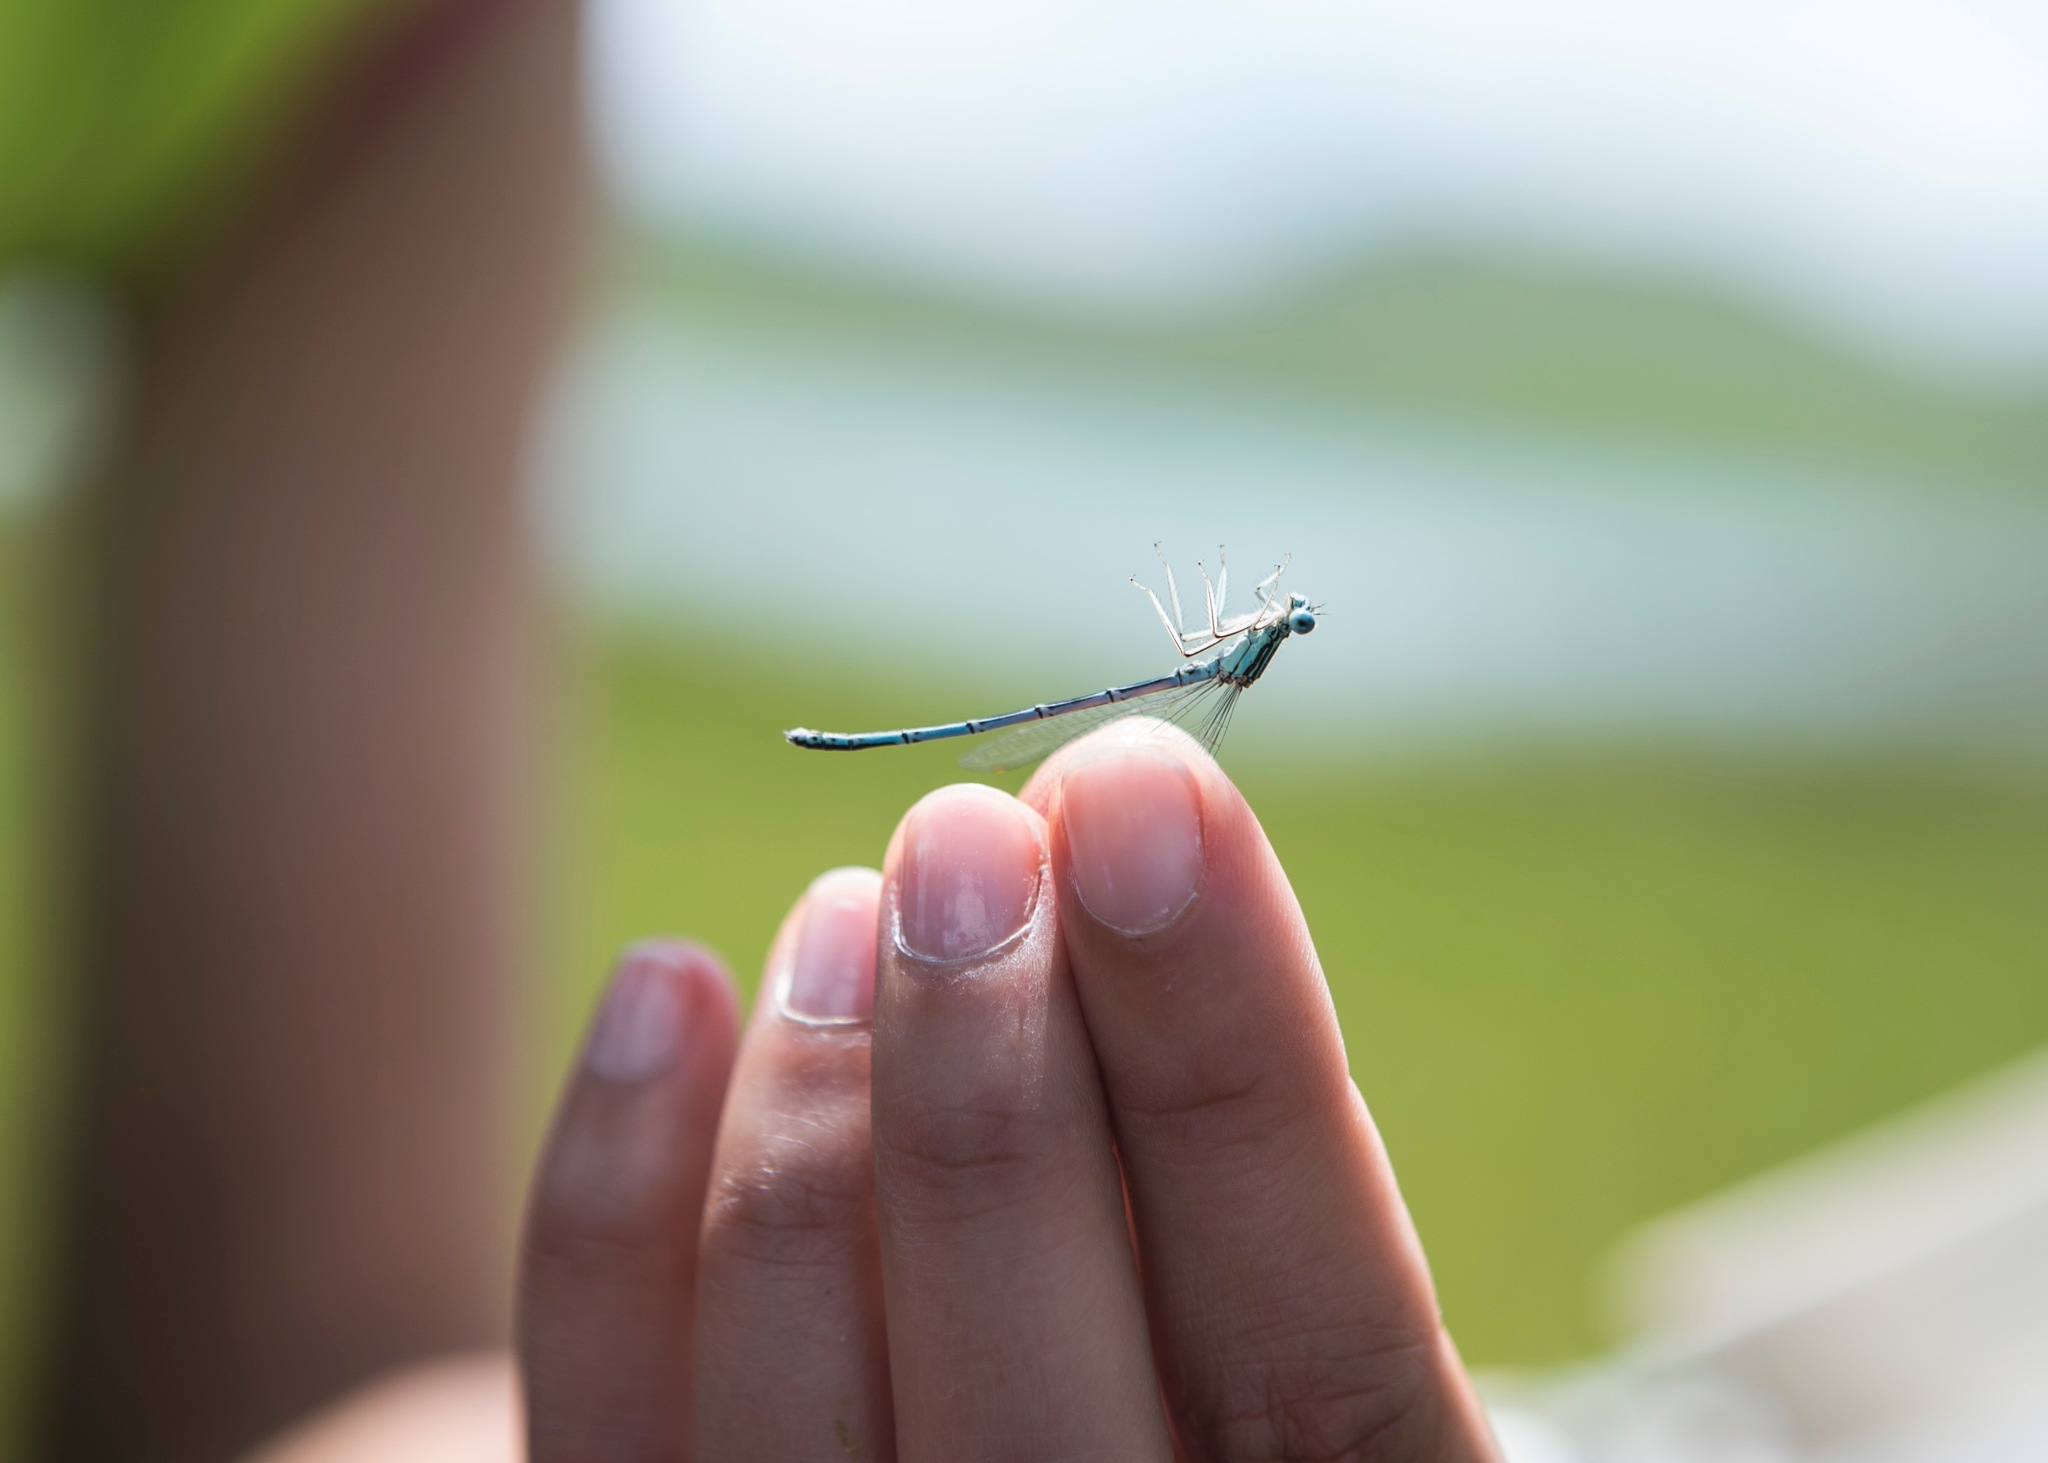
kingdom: Animalia
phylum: Arthropoda
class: Insecta
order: Odonata
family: Platycnemididae
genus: Platycnemis
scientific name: Platycnemis pennipes
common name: White-legged damselfly
